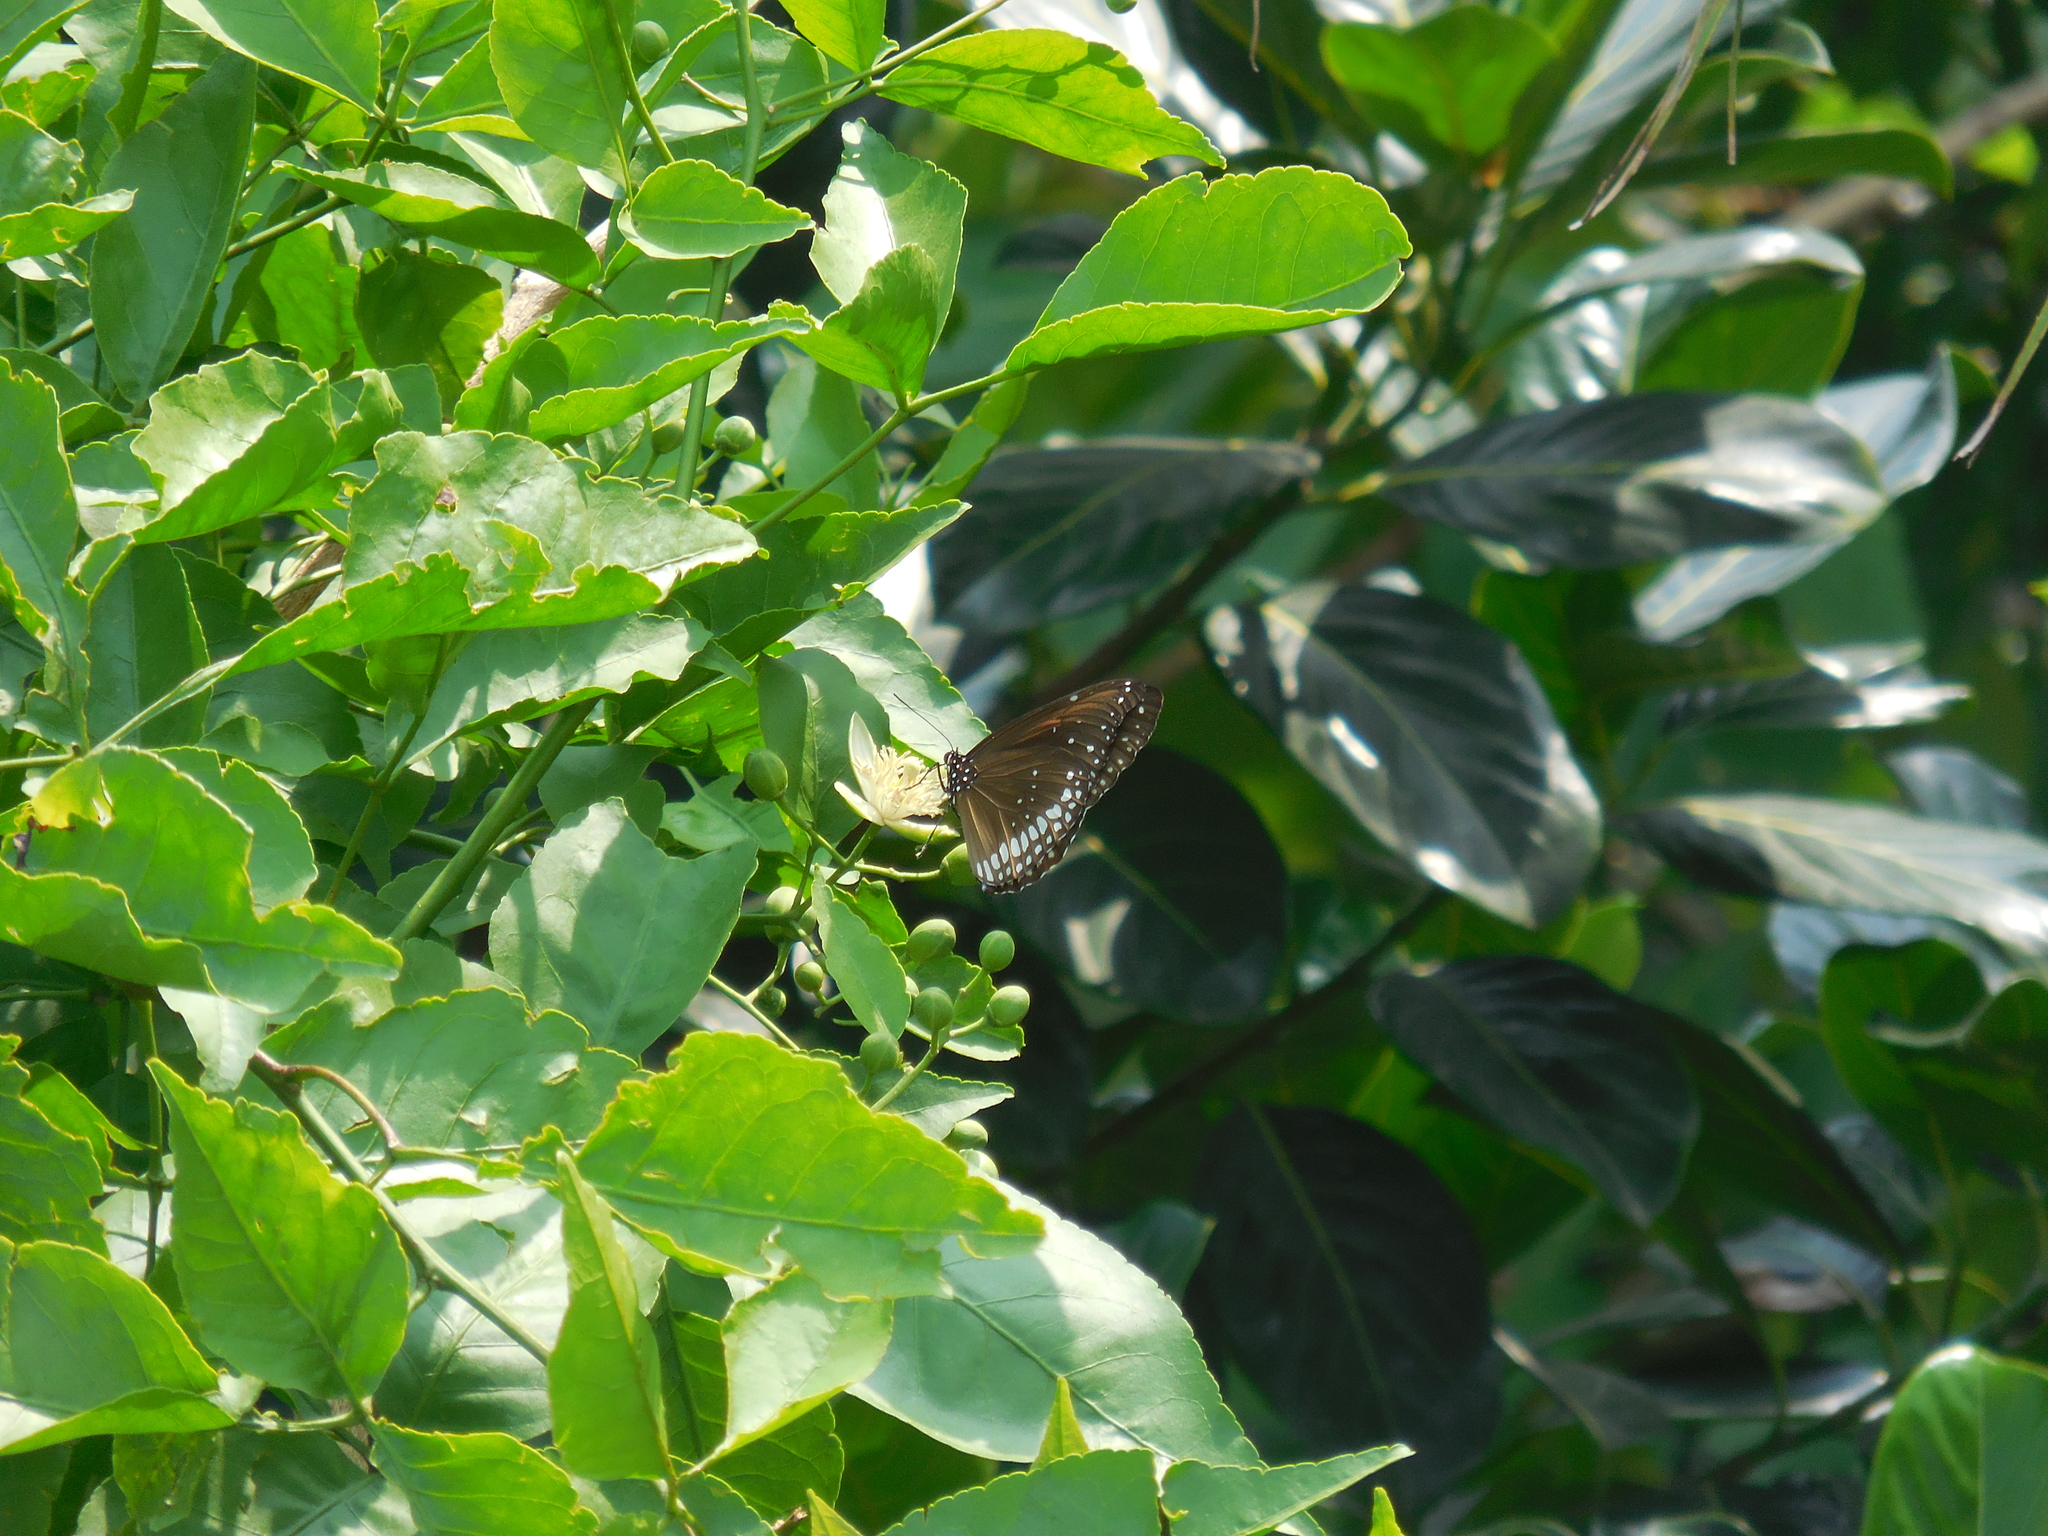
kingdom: Animalia
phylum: Arthropoda
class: Insecta
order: Lepidoptera
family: Nymphalidae
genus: Euploea
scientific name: Euploea core
